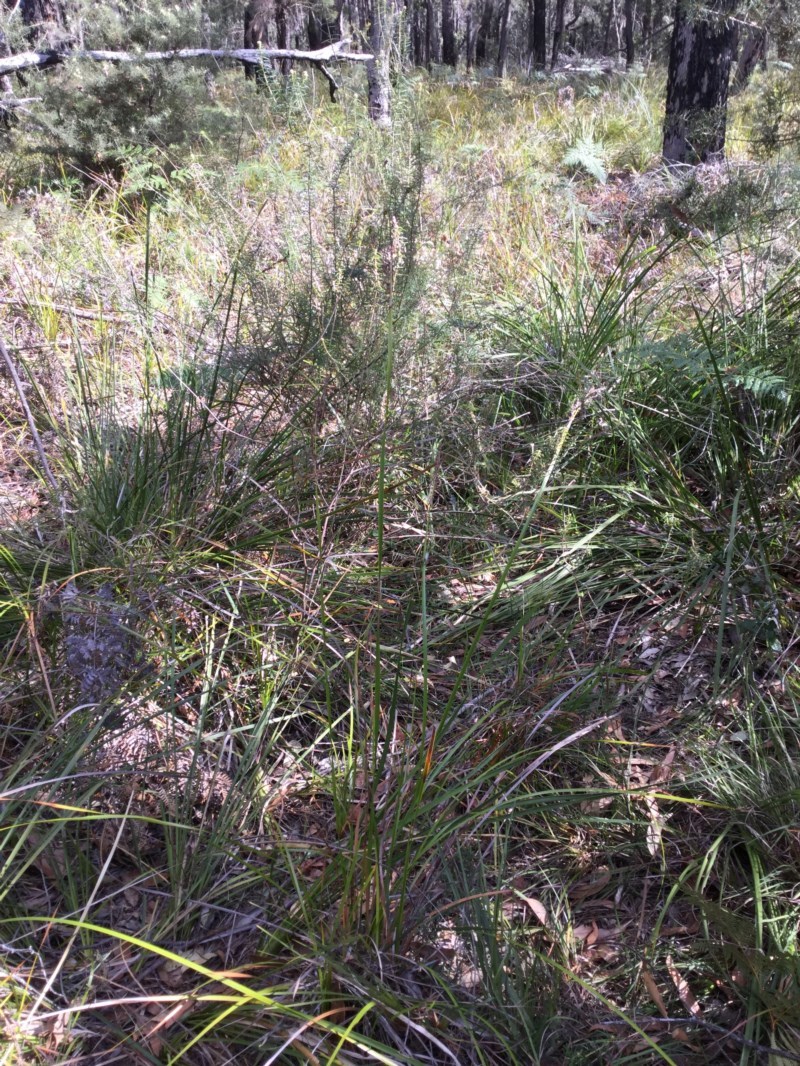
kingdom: Plantae
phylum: Tracheophyta
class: Magnoliopsida
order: Apiales
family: Araliaceae
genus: Astrotricha
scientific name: Astrotricha
